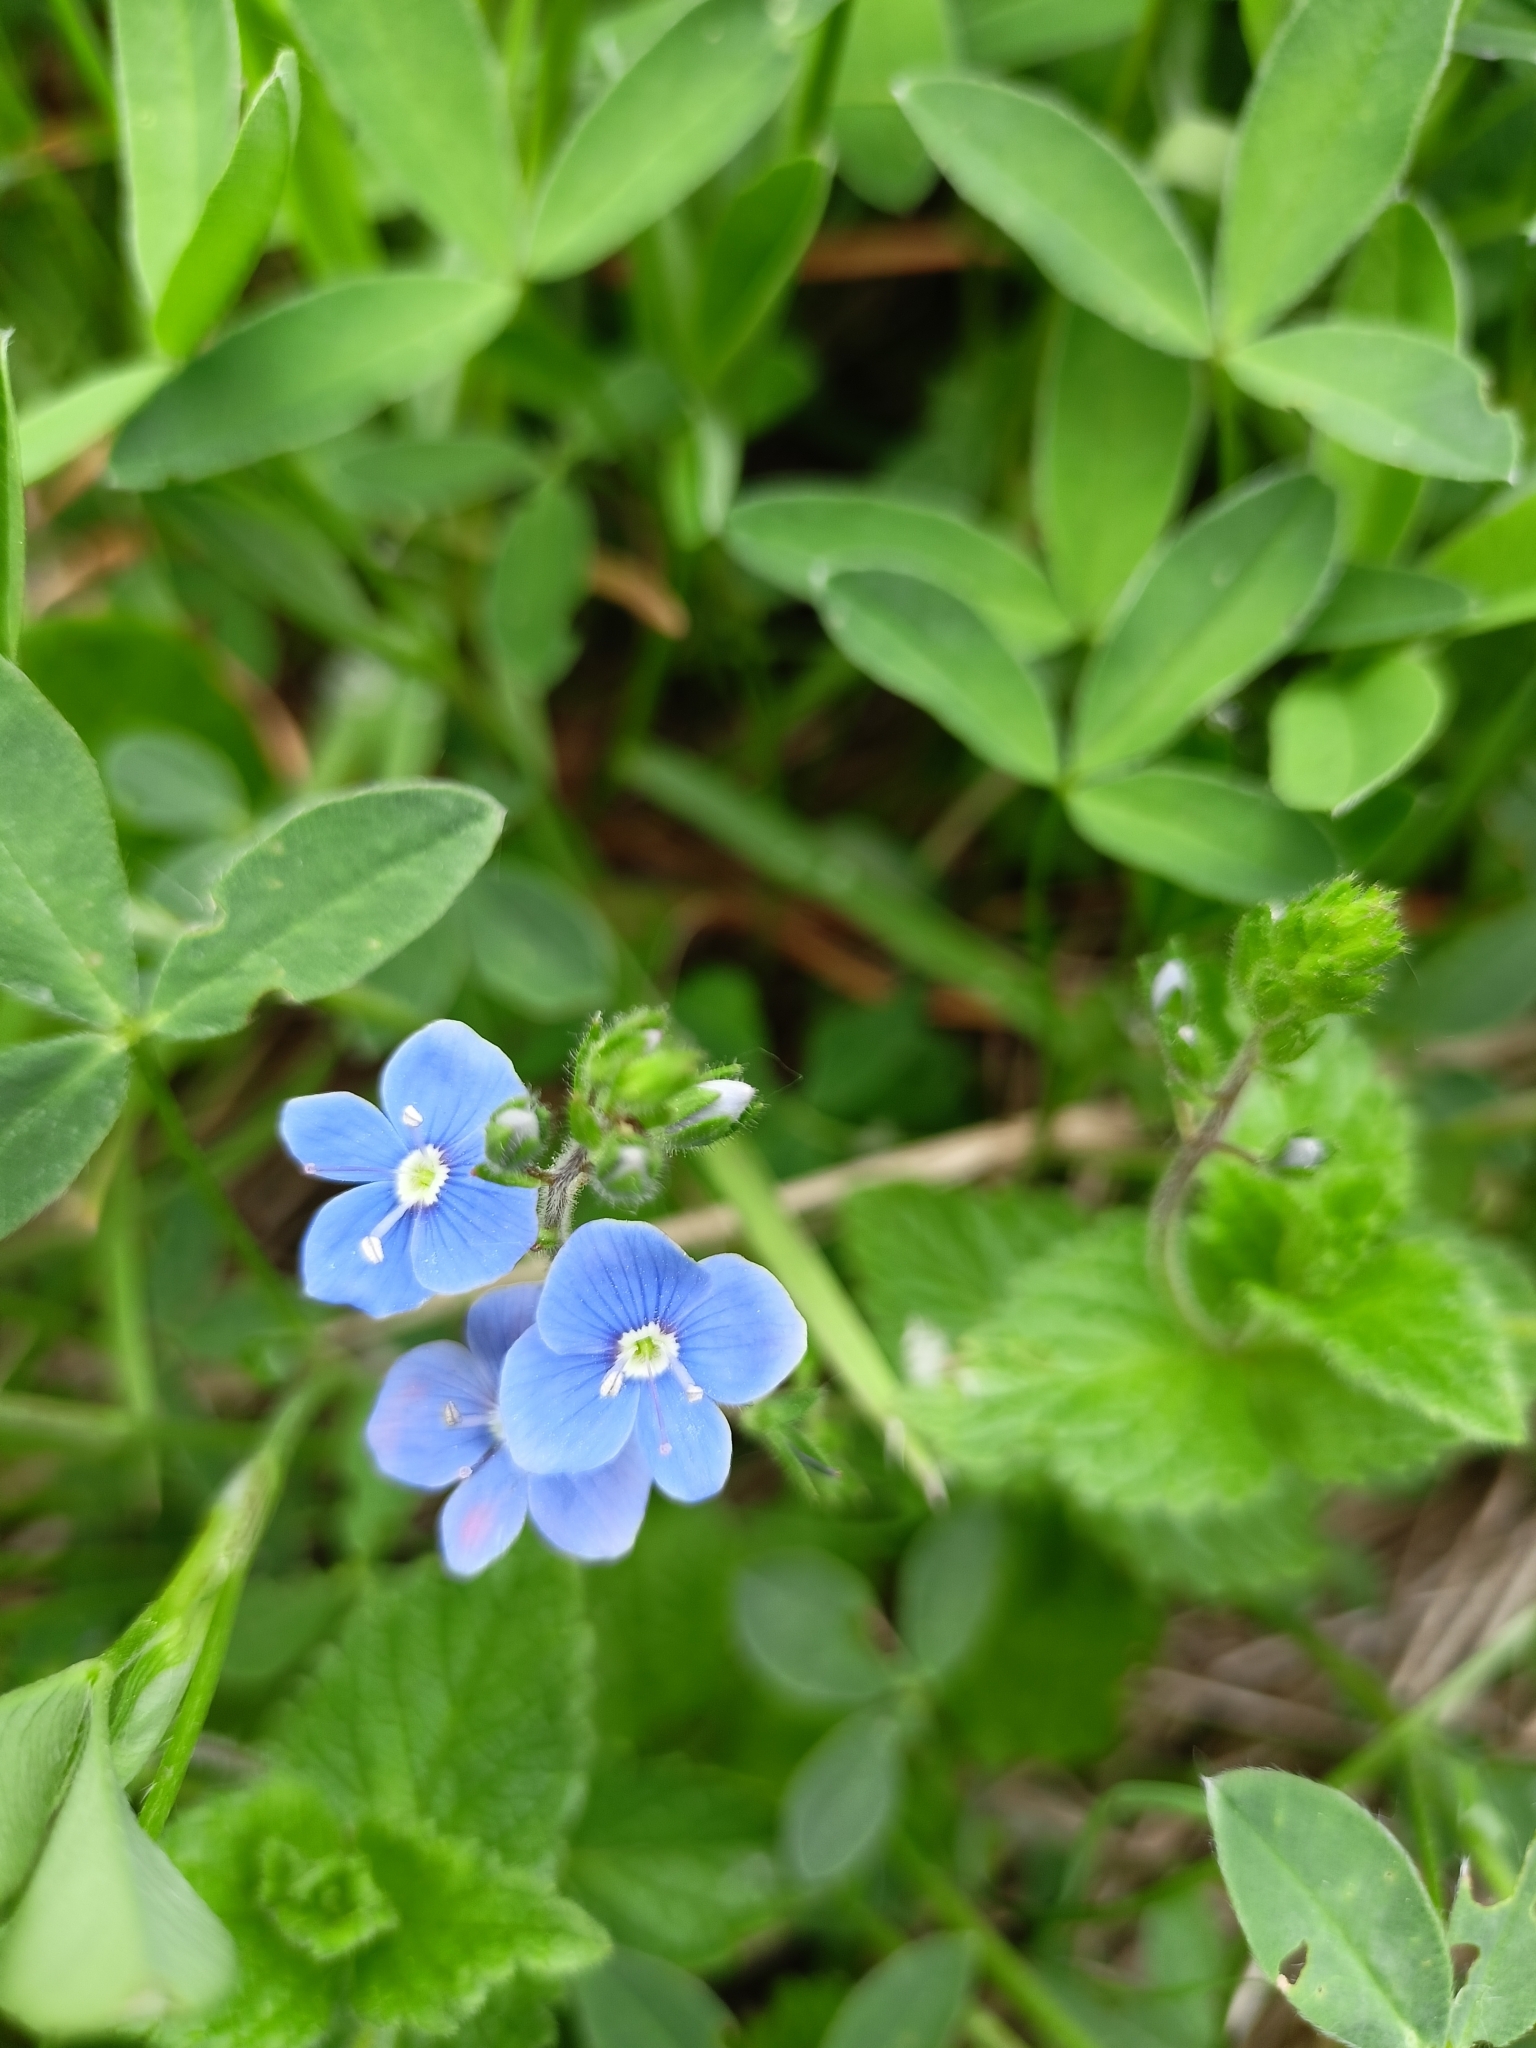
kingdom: Plantae
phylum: Tracheophyta
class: Magnoliopsida
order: Lamiales
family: Plantaginaceae
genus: Veronica
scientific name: Veronica chamaedrys
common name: Germander speedwell
